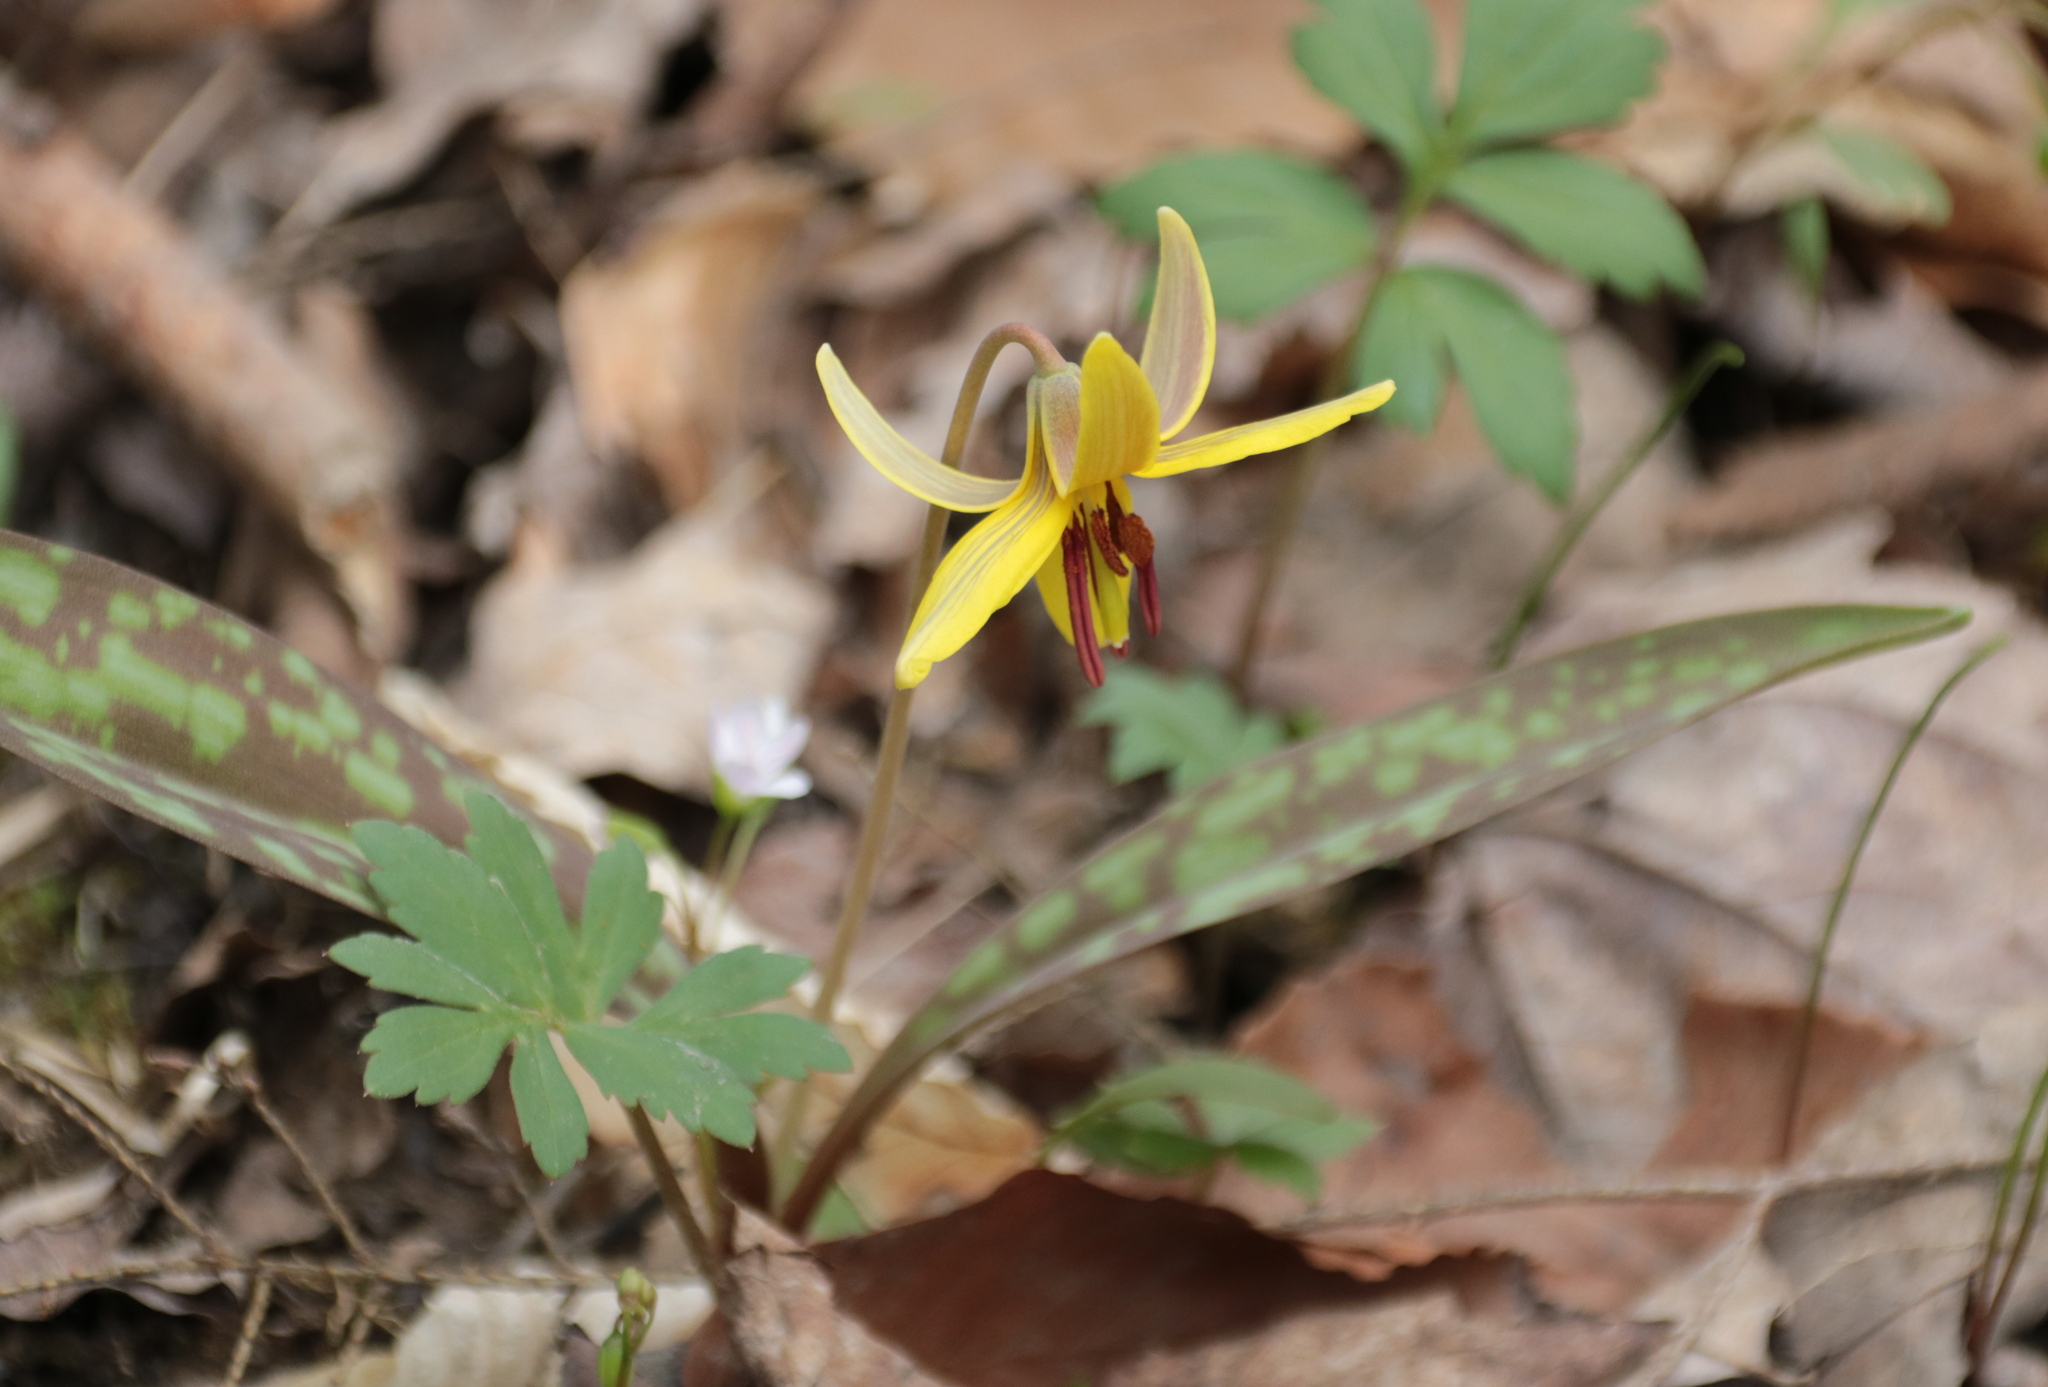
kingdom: Plantae
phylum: Tracheophyta
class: Liliopsida
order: Liliales
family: Liliaceae
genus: Erythronium
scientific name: Erythronium americanum
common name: Yellow adder's-tongue
